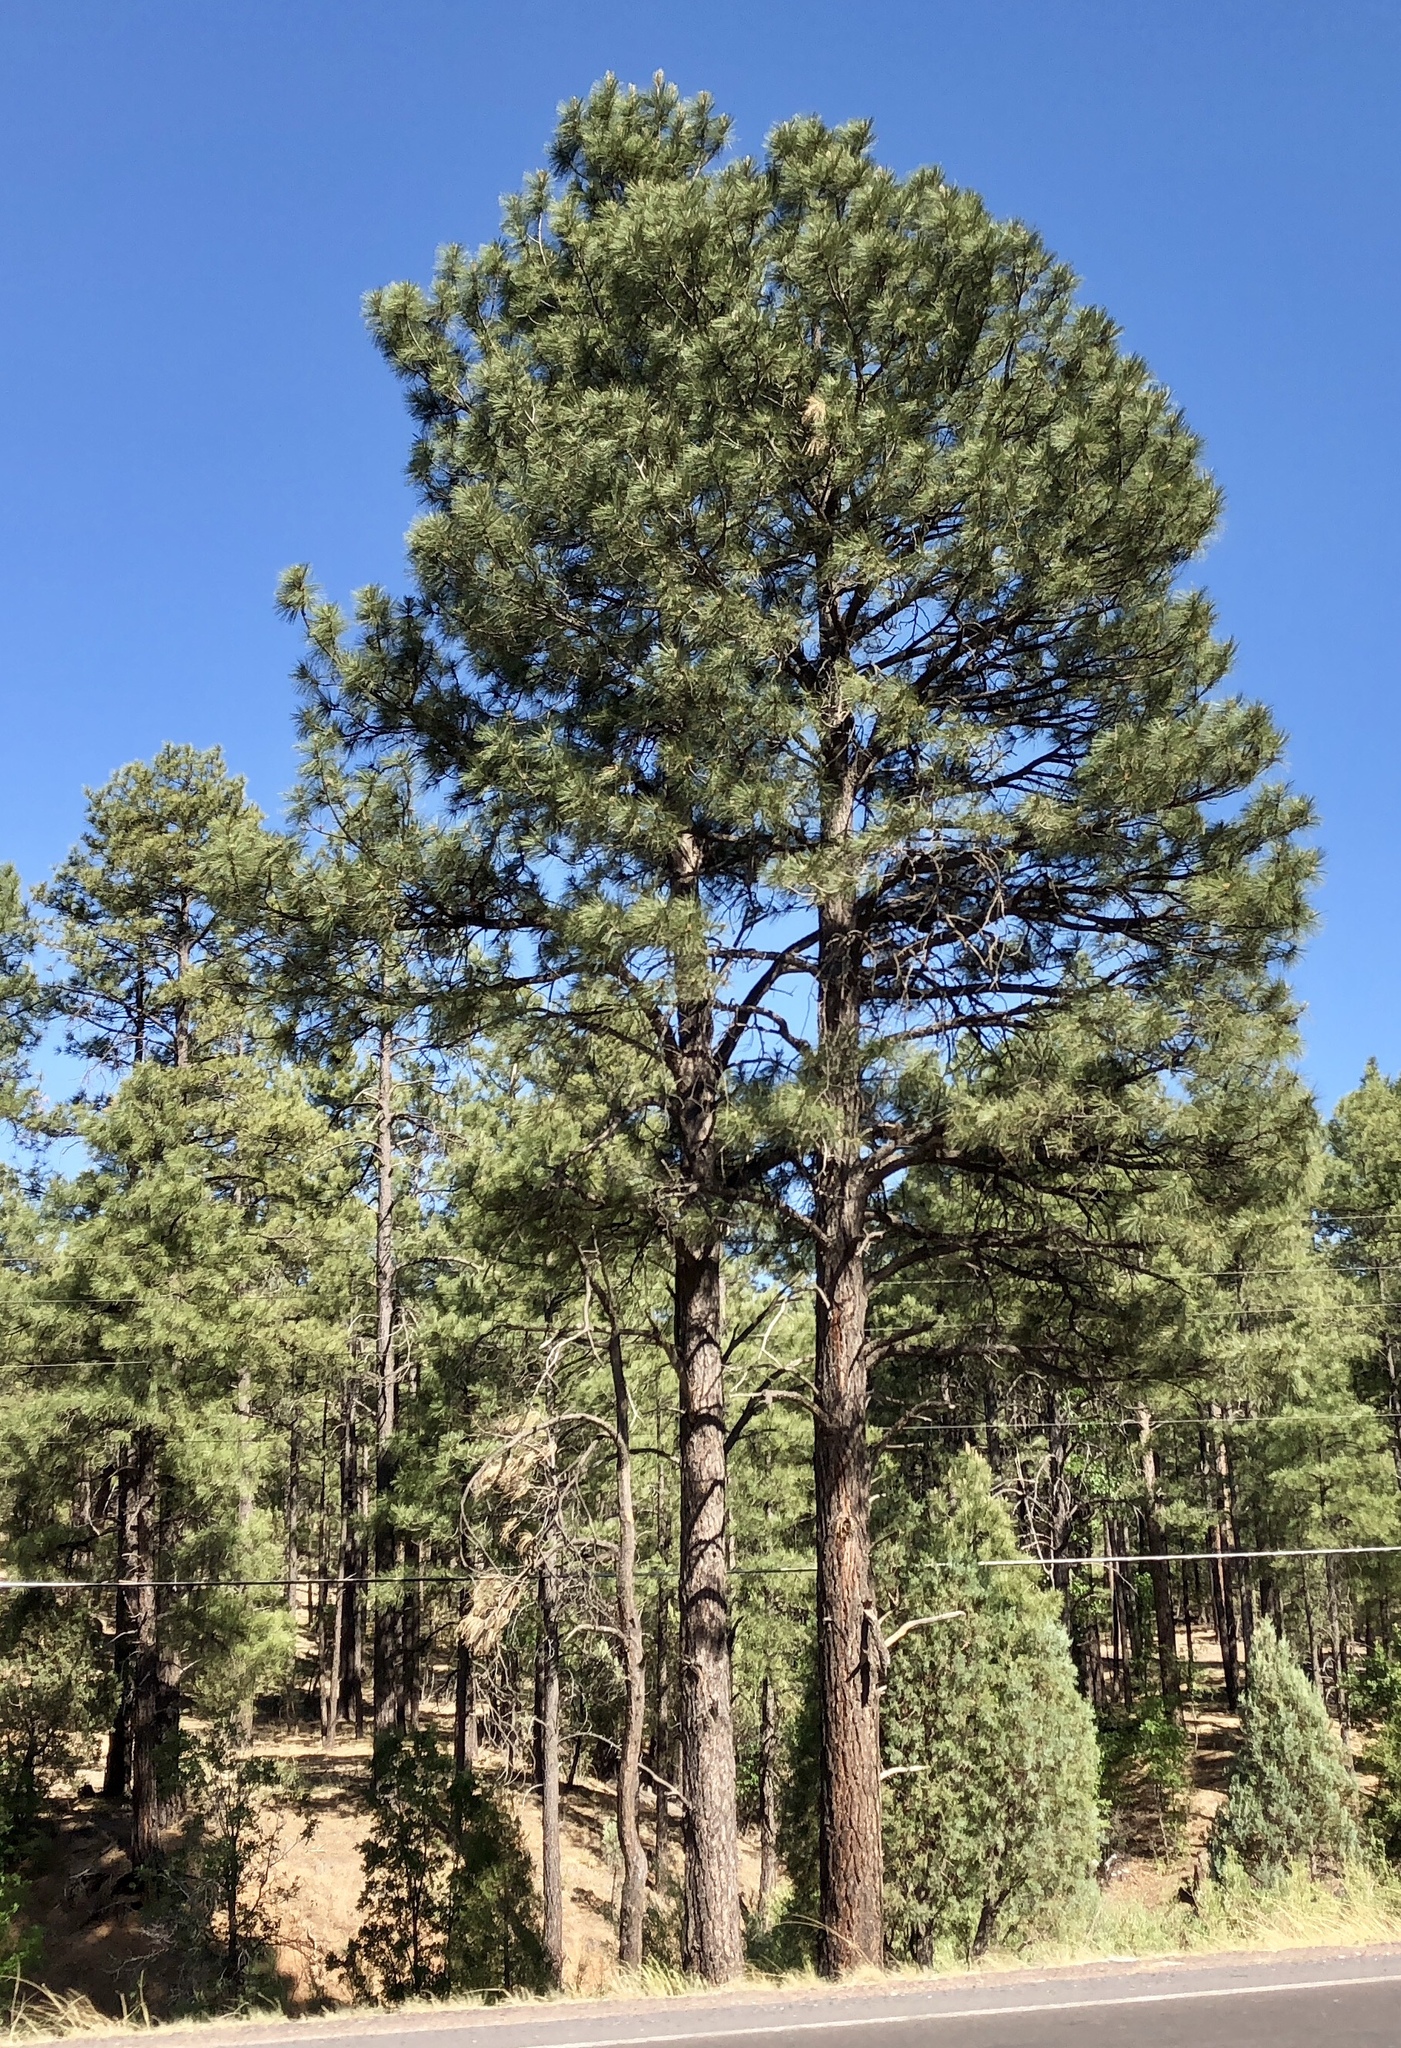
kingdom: Plantae
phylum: Tracheophyta
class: Pinopsida
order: Pinales
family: Pinaceae
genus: Pinus
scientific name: Pinus ponderosa
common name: Western yellow-pine
